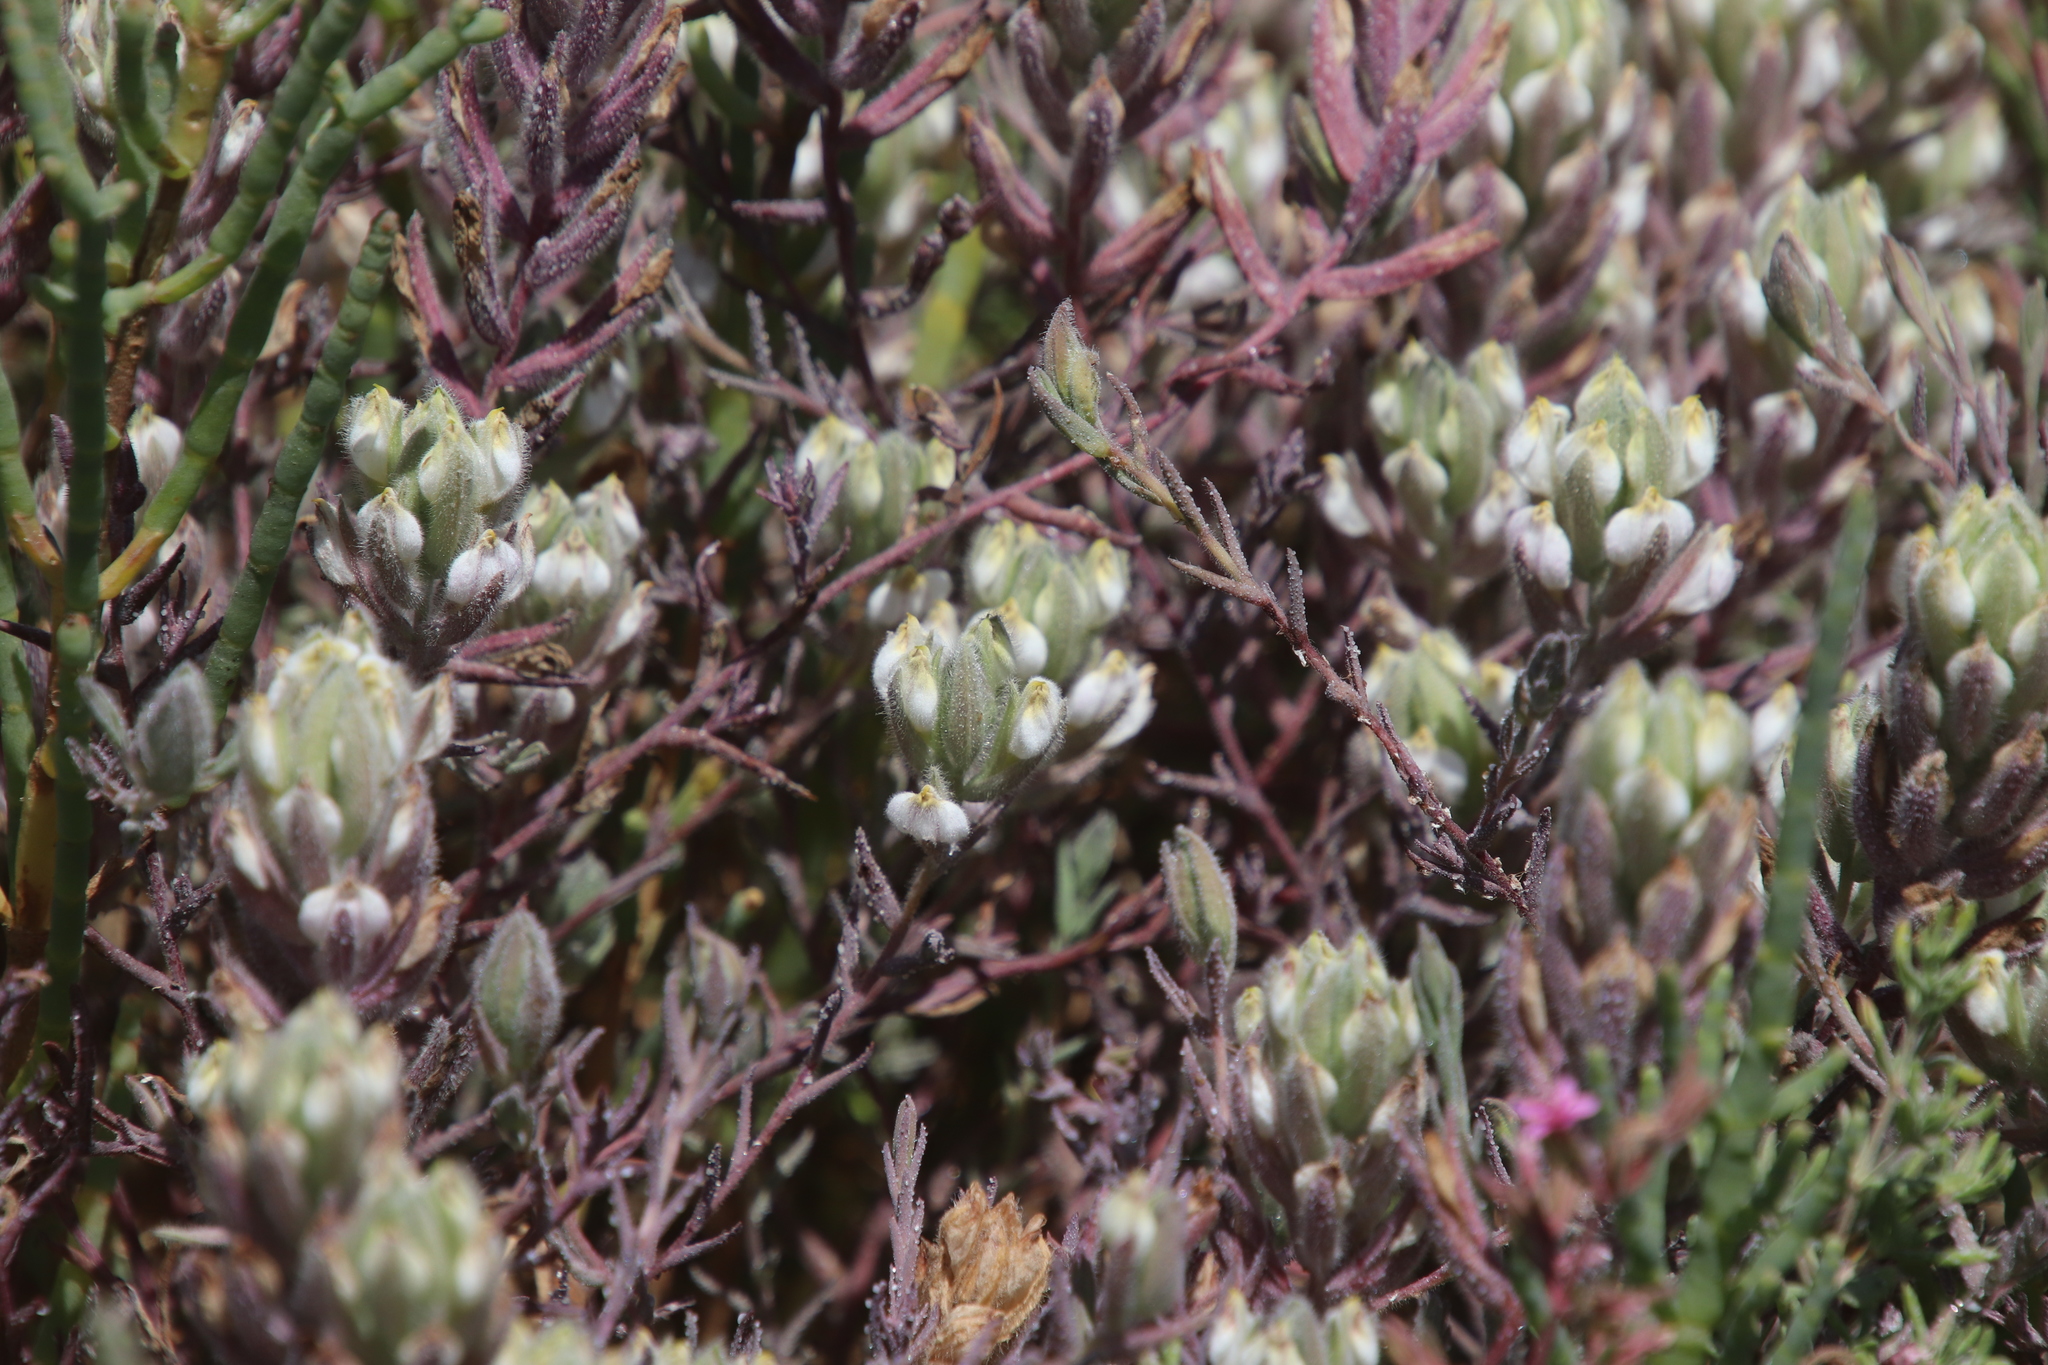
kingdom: Plantae
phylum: Tracheophyta
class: Magnoliopsida
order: Lamiales
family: Orobanchaceae
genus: Chloropyron
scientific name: Chloropyron maritimum
